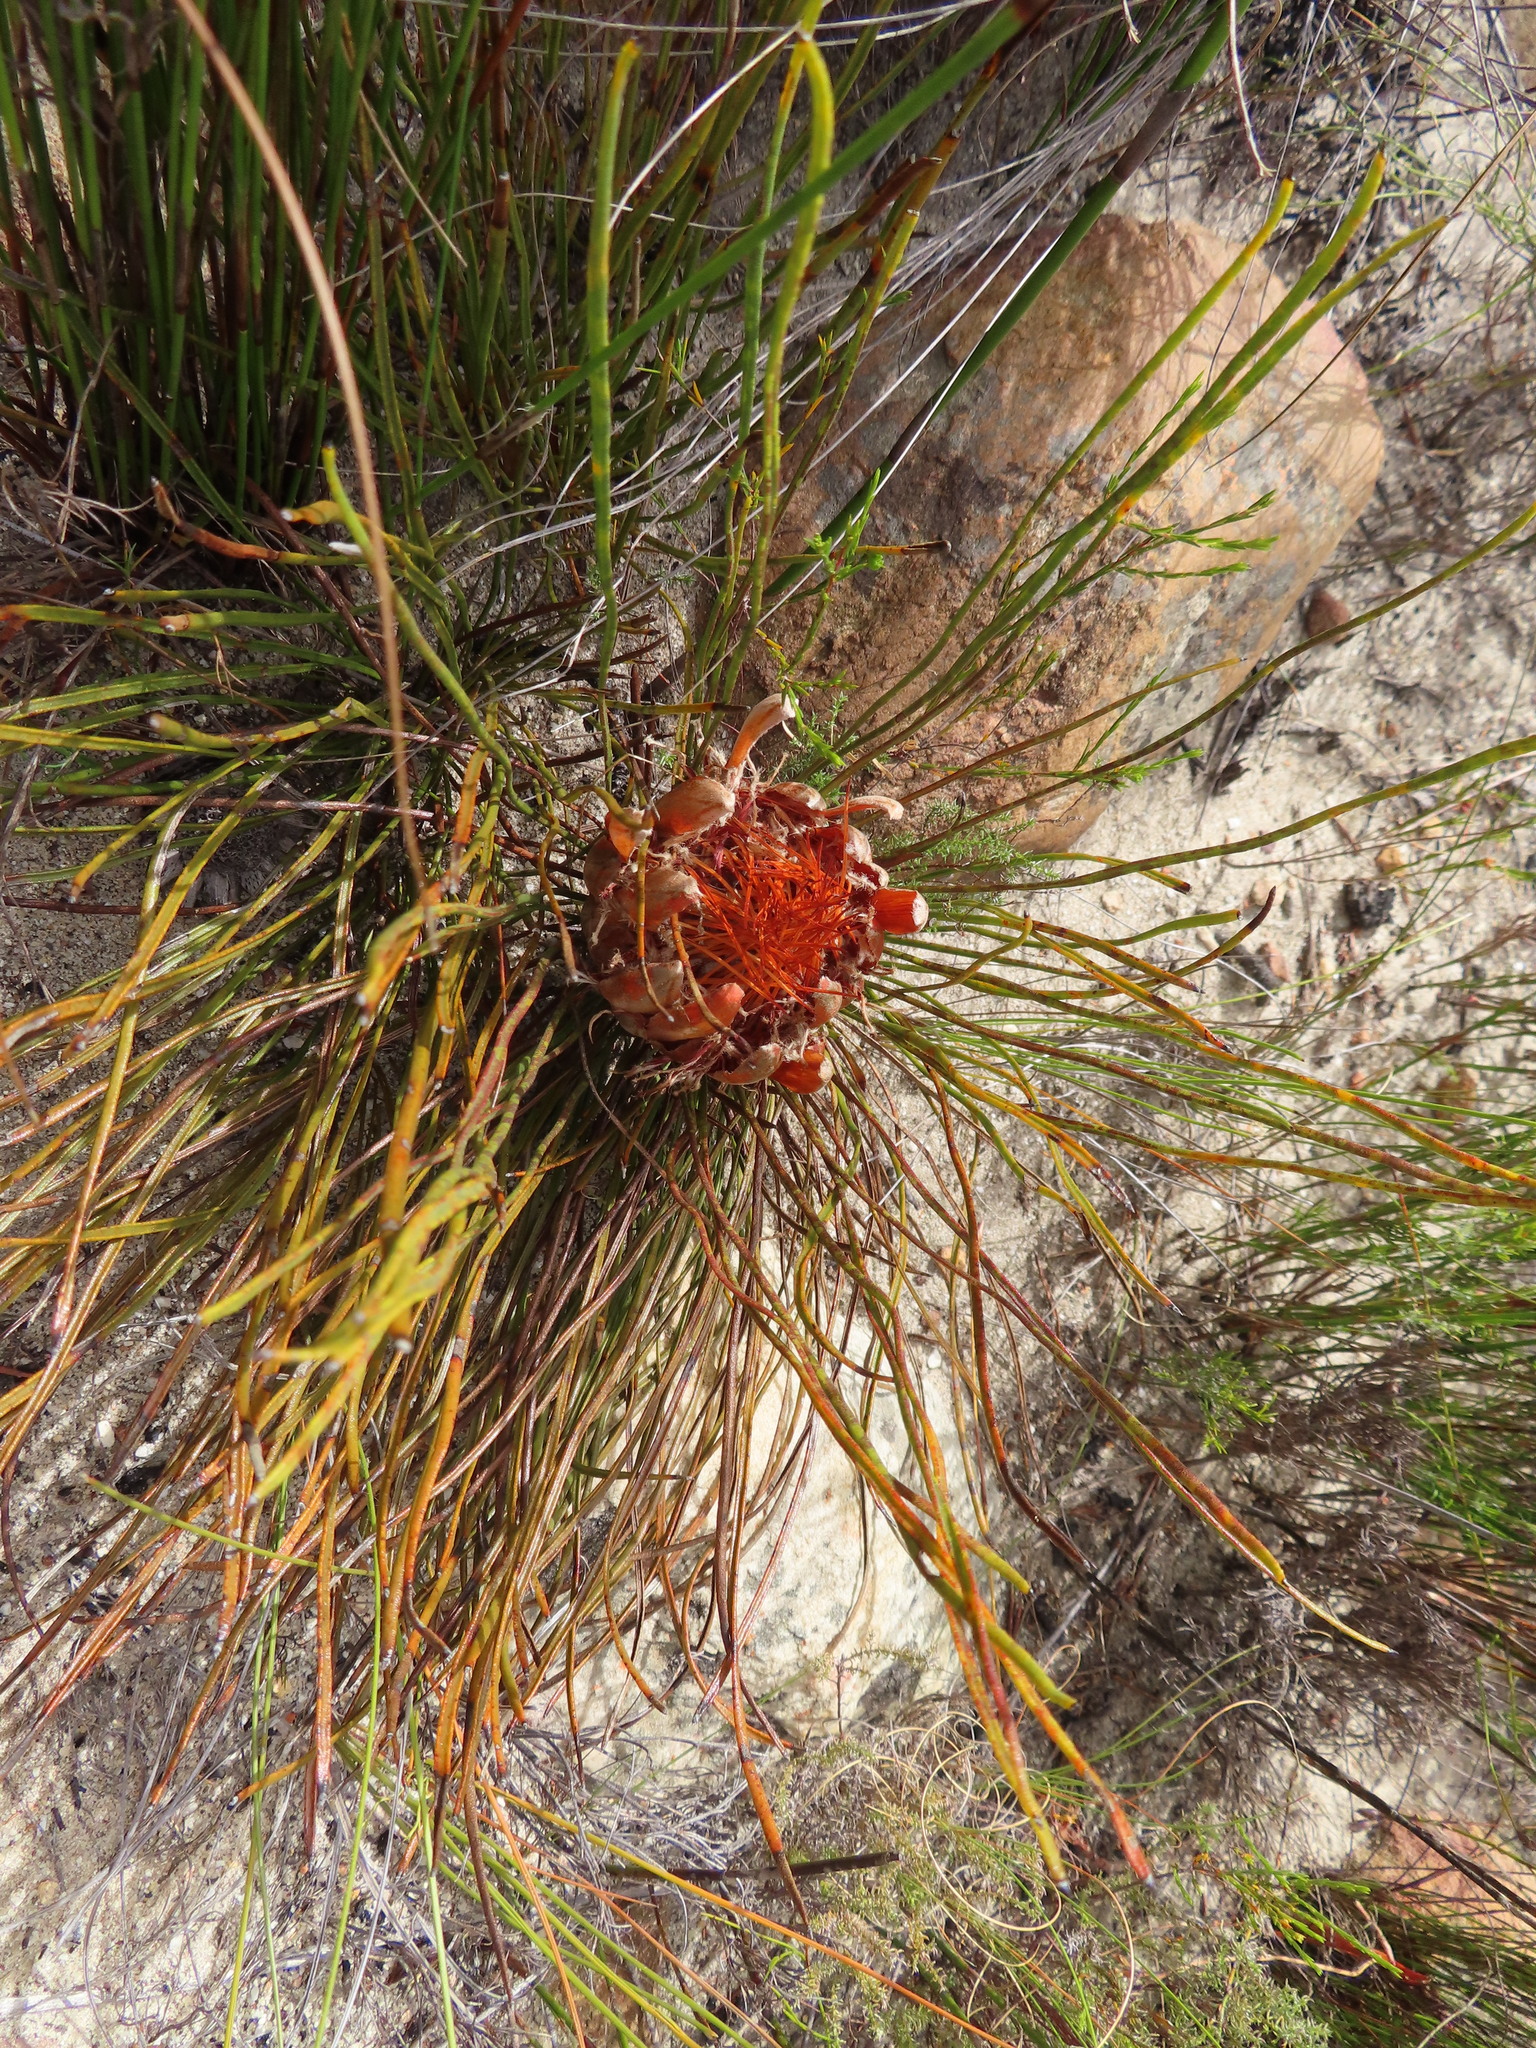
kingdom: Plantae
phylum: Tracheophyta
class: Magnoliopsida
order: Proteales
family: Proteaceae
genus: Protea
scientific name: Protea scorzonerifolia
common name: Channel-leaf sugarbush
